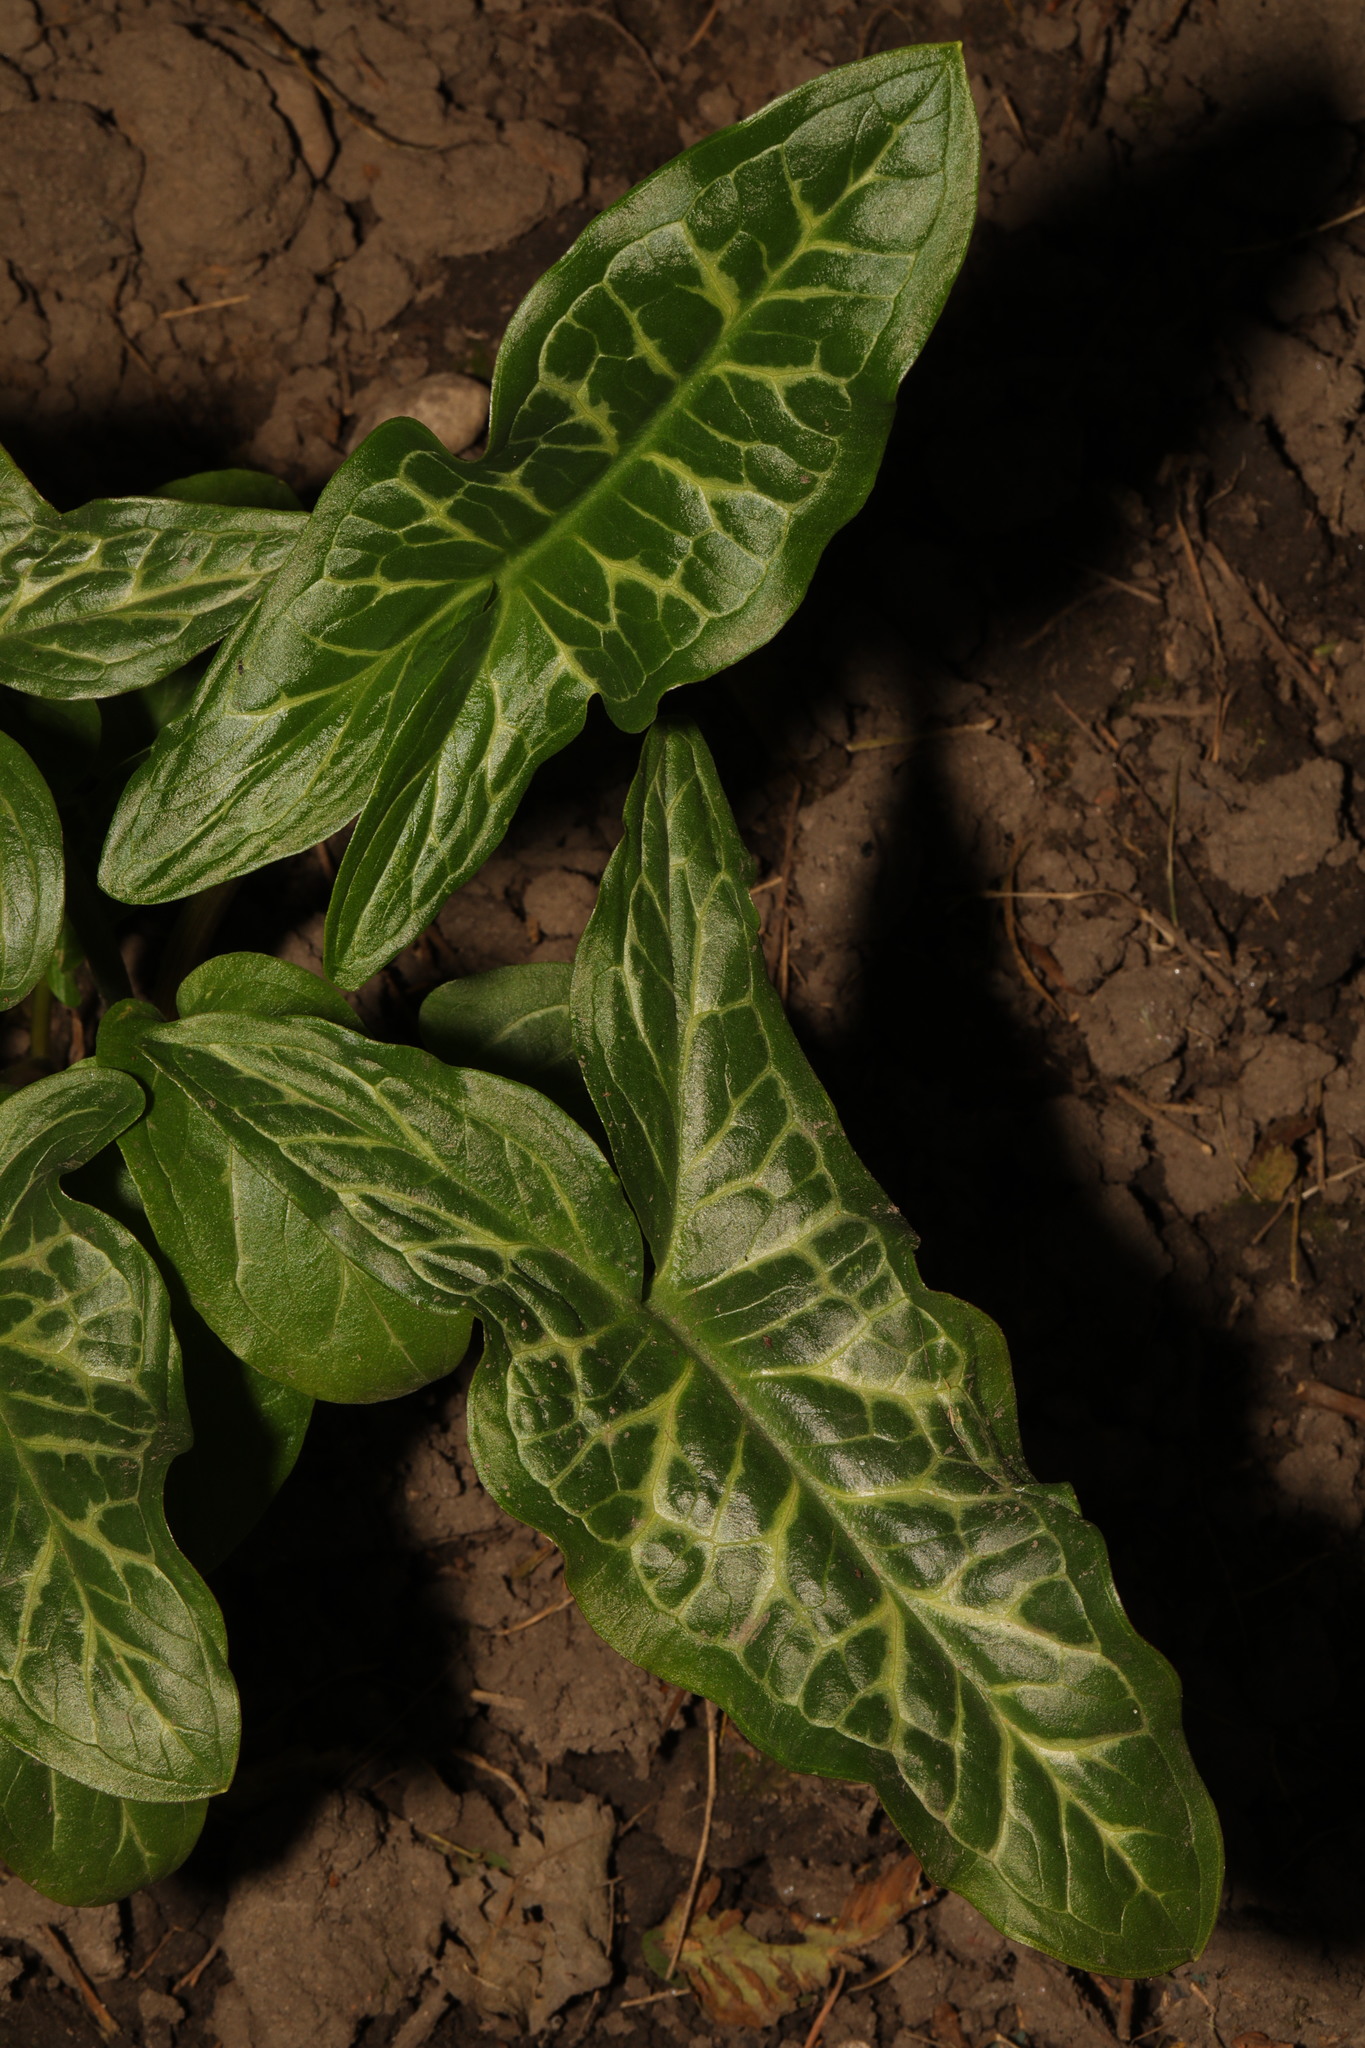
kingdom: Plantae
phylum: Tracheophyta
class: Liliopsida
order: Alismatales
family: Araceae
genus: Arum
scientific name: Arum italicum
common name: Italian lords-and-ladies
